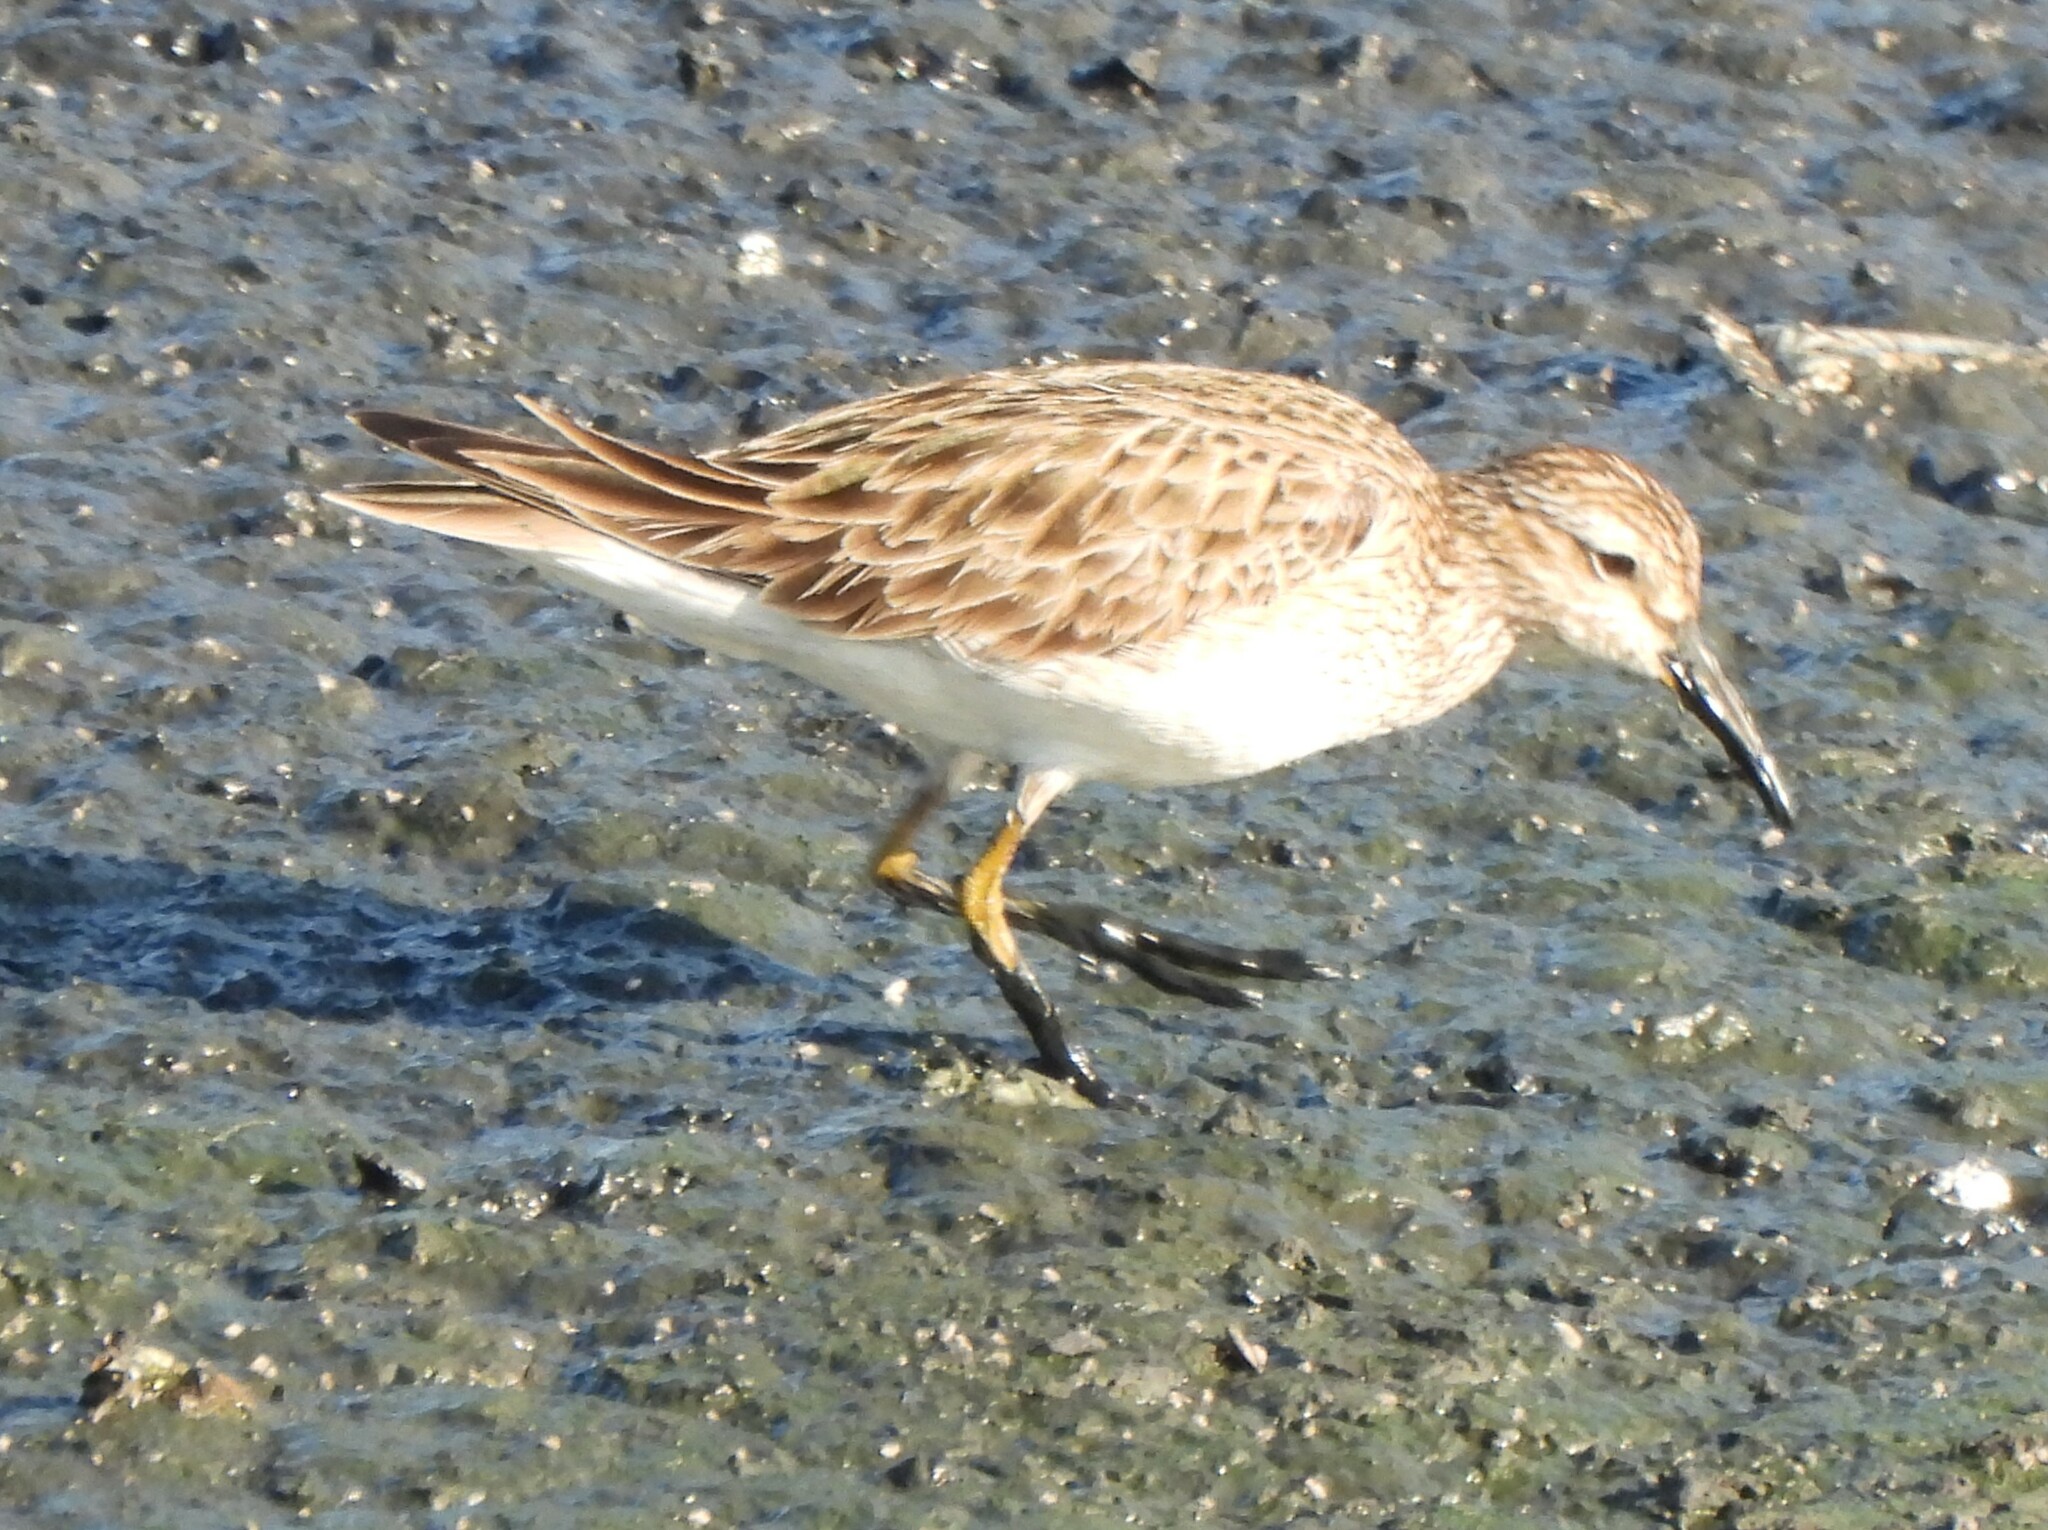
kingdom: Animalia
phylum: Chordata
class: Aves
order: Charadriiformes
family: Scolopacidae
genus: Calidris
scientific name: Calidris minutilla
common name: Least sandpiper
